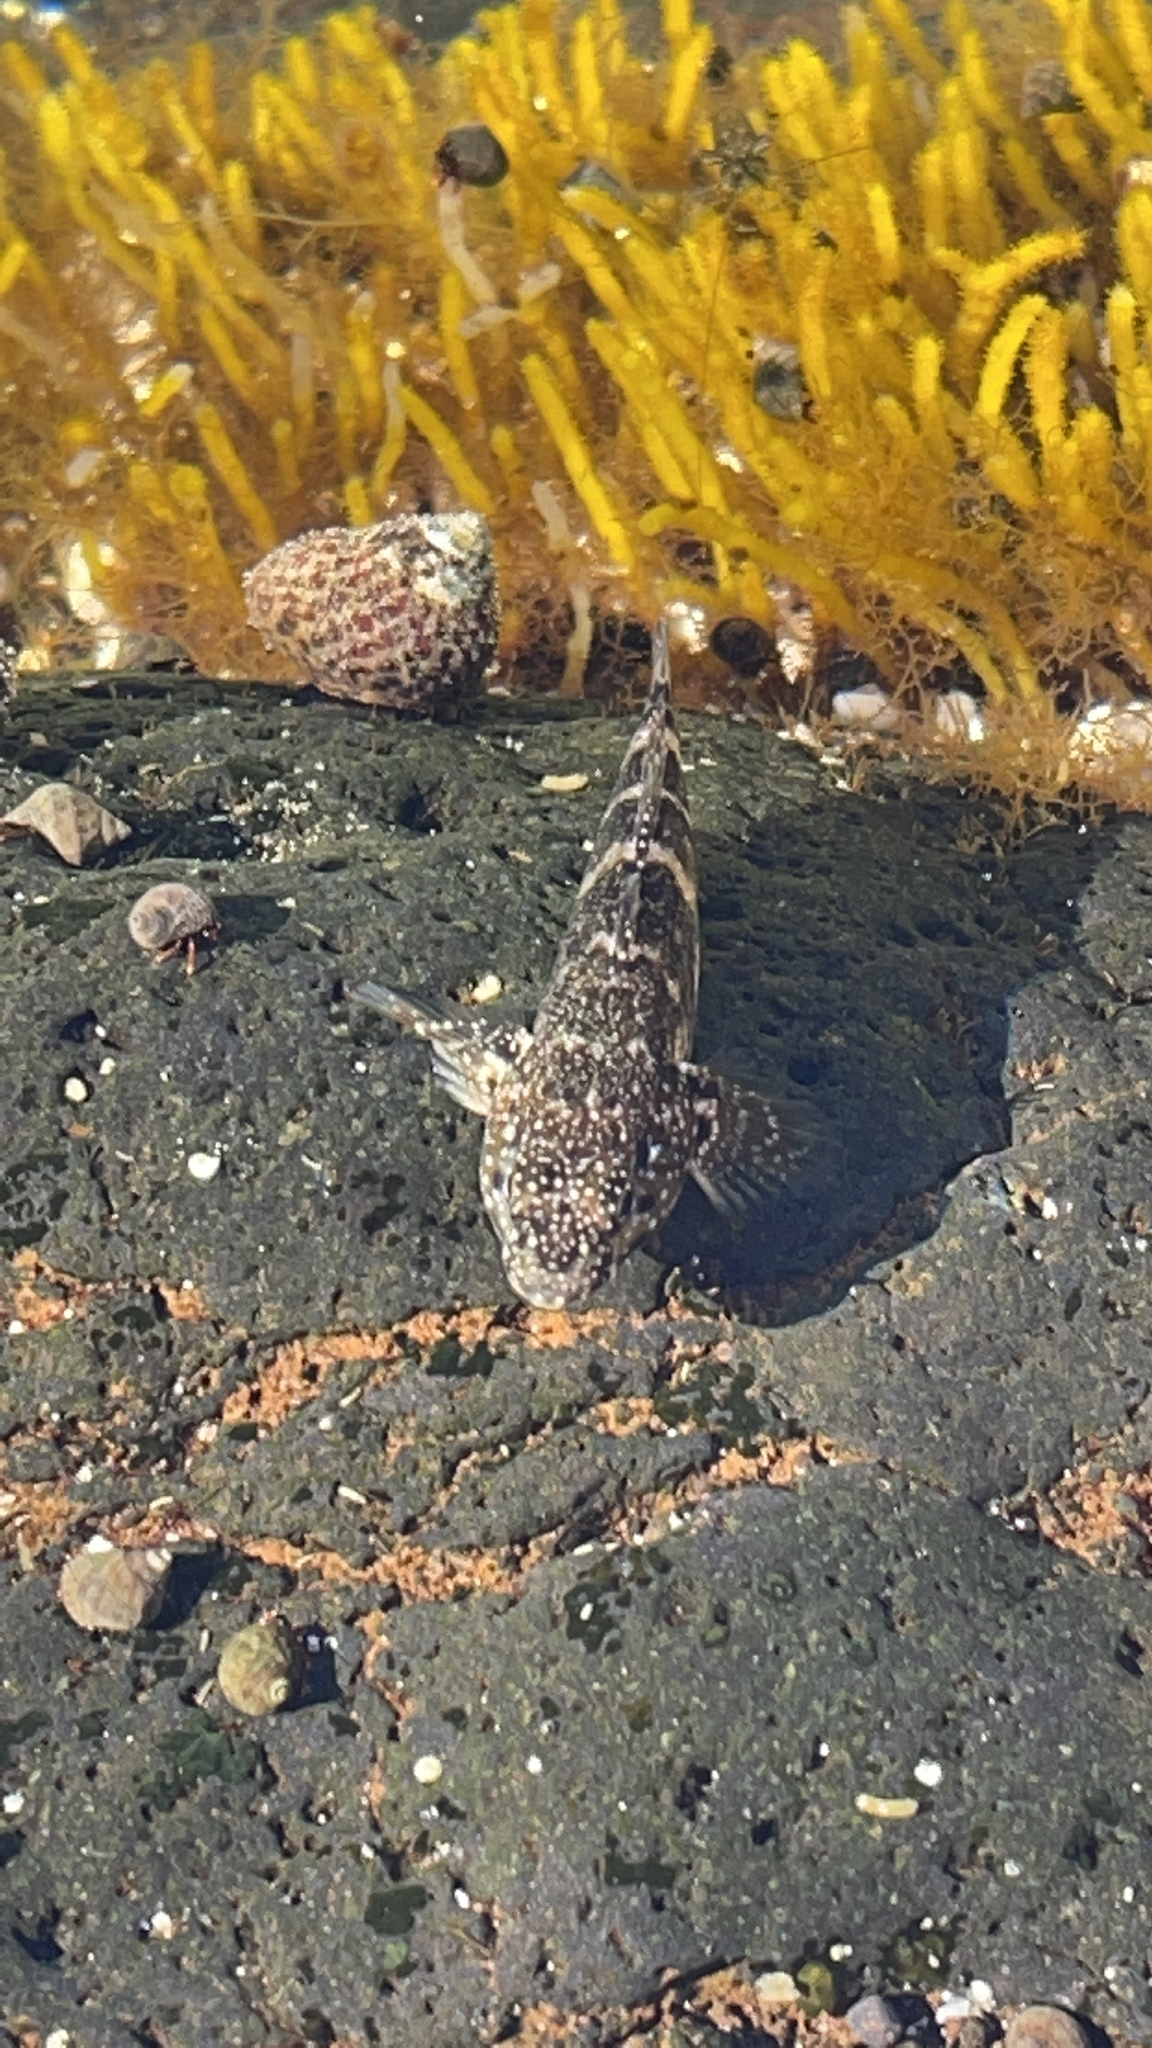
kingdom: Animalia
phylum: Chordata
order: Perciformes
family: Gobiidae
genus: Mauligobius
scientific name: Mauligobius maderensis
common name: Rock goby
